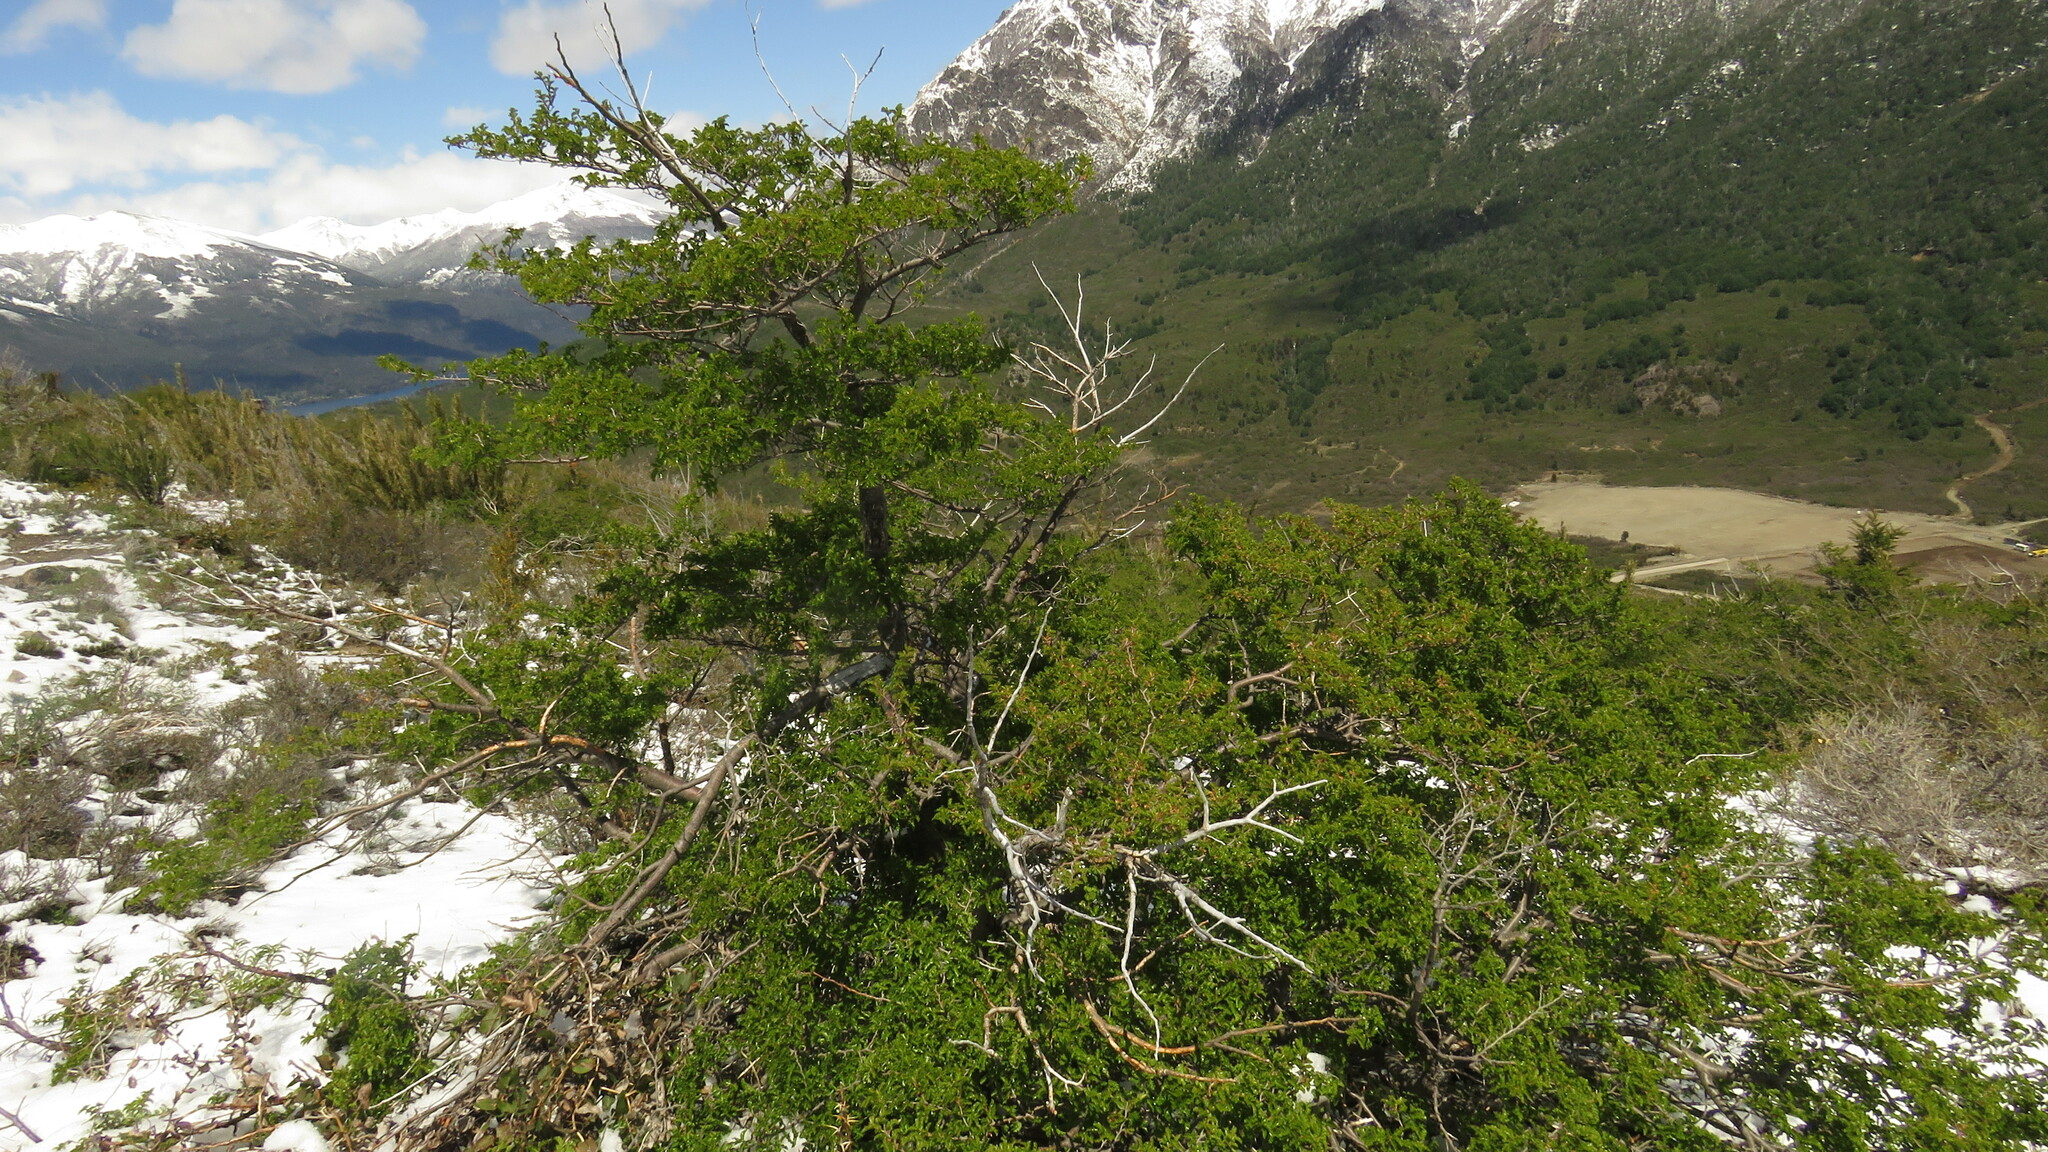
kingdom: Plantae
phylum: Tracheophyta
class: Magnoliopsida
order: Fagales
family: Nothofagaceae
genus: Nothofagus
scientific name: Nothofagus antarctica
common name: Antarctic beech
